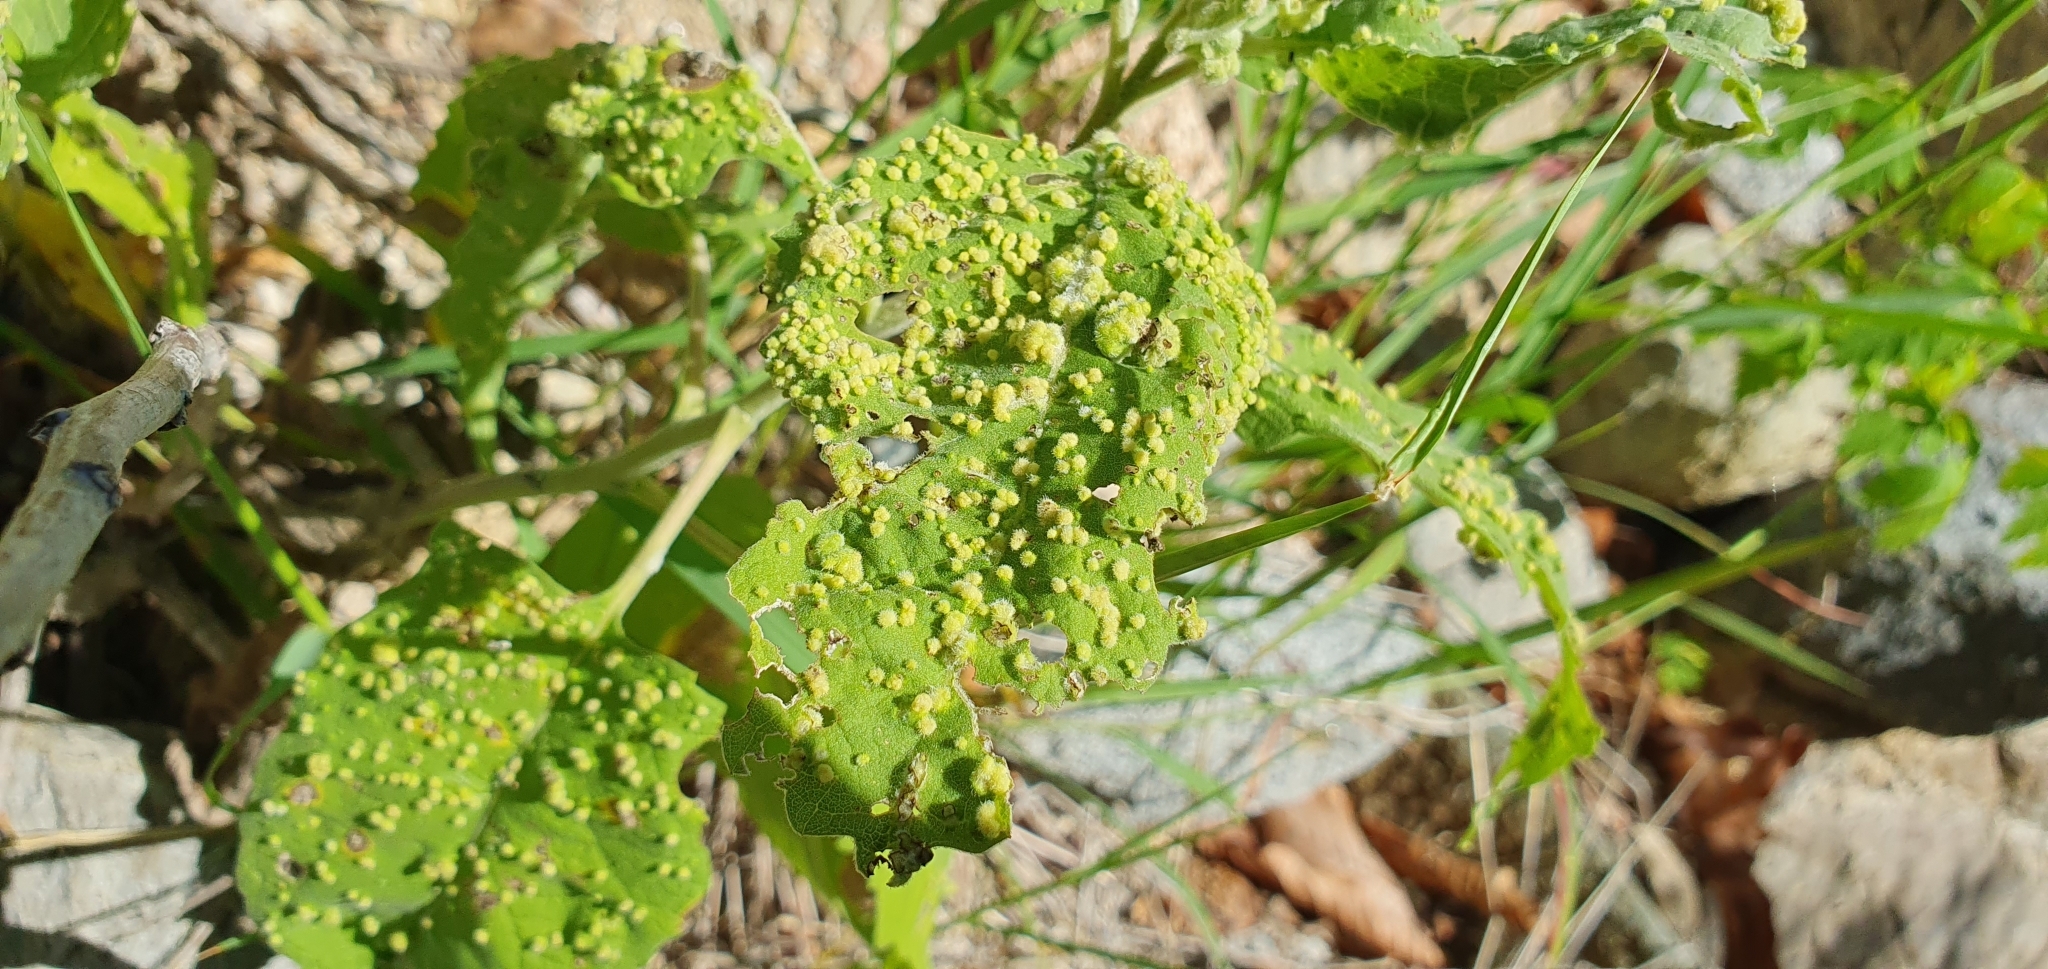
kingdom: Plantae
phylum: Tracheophyta
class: Magnoliopsida
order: Asterales
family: Asteraceae
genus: Ambrosia
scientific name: Ambrosia ambrosioides
